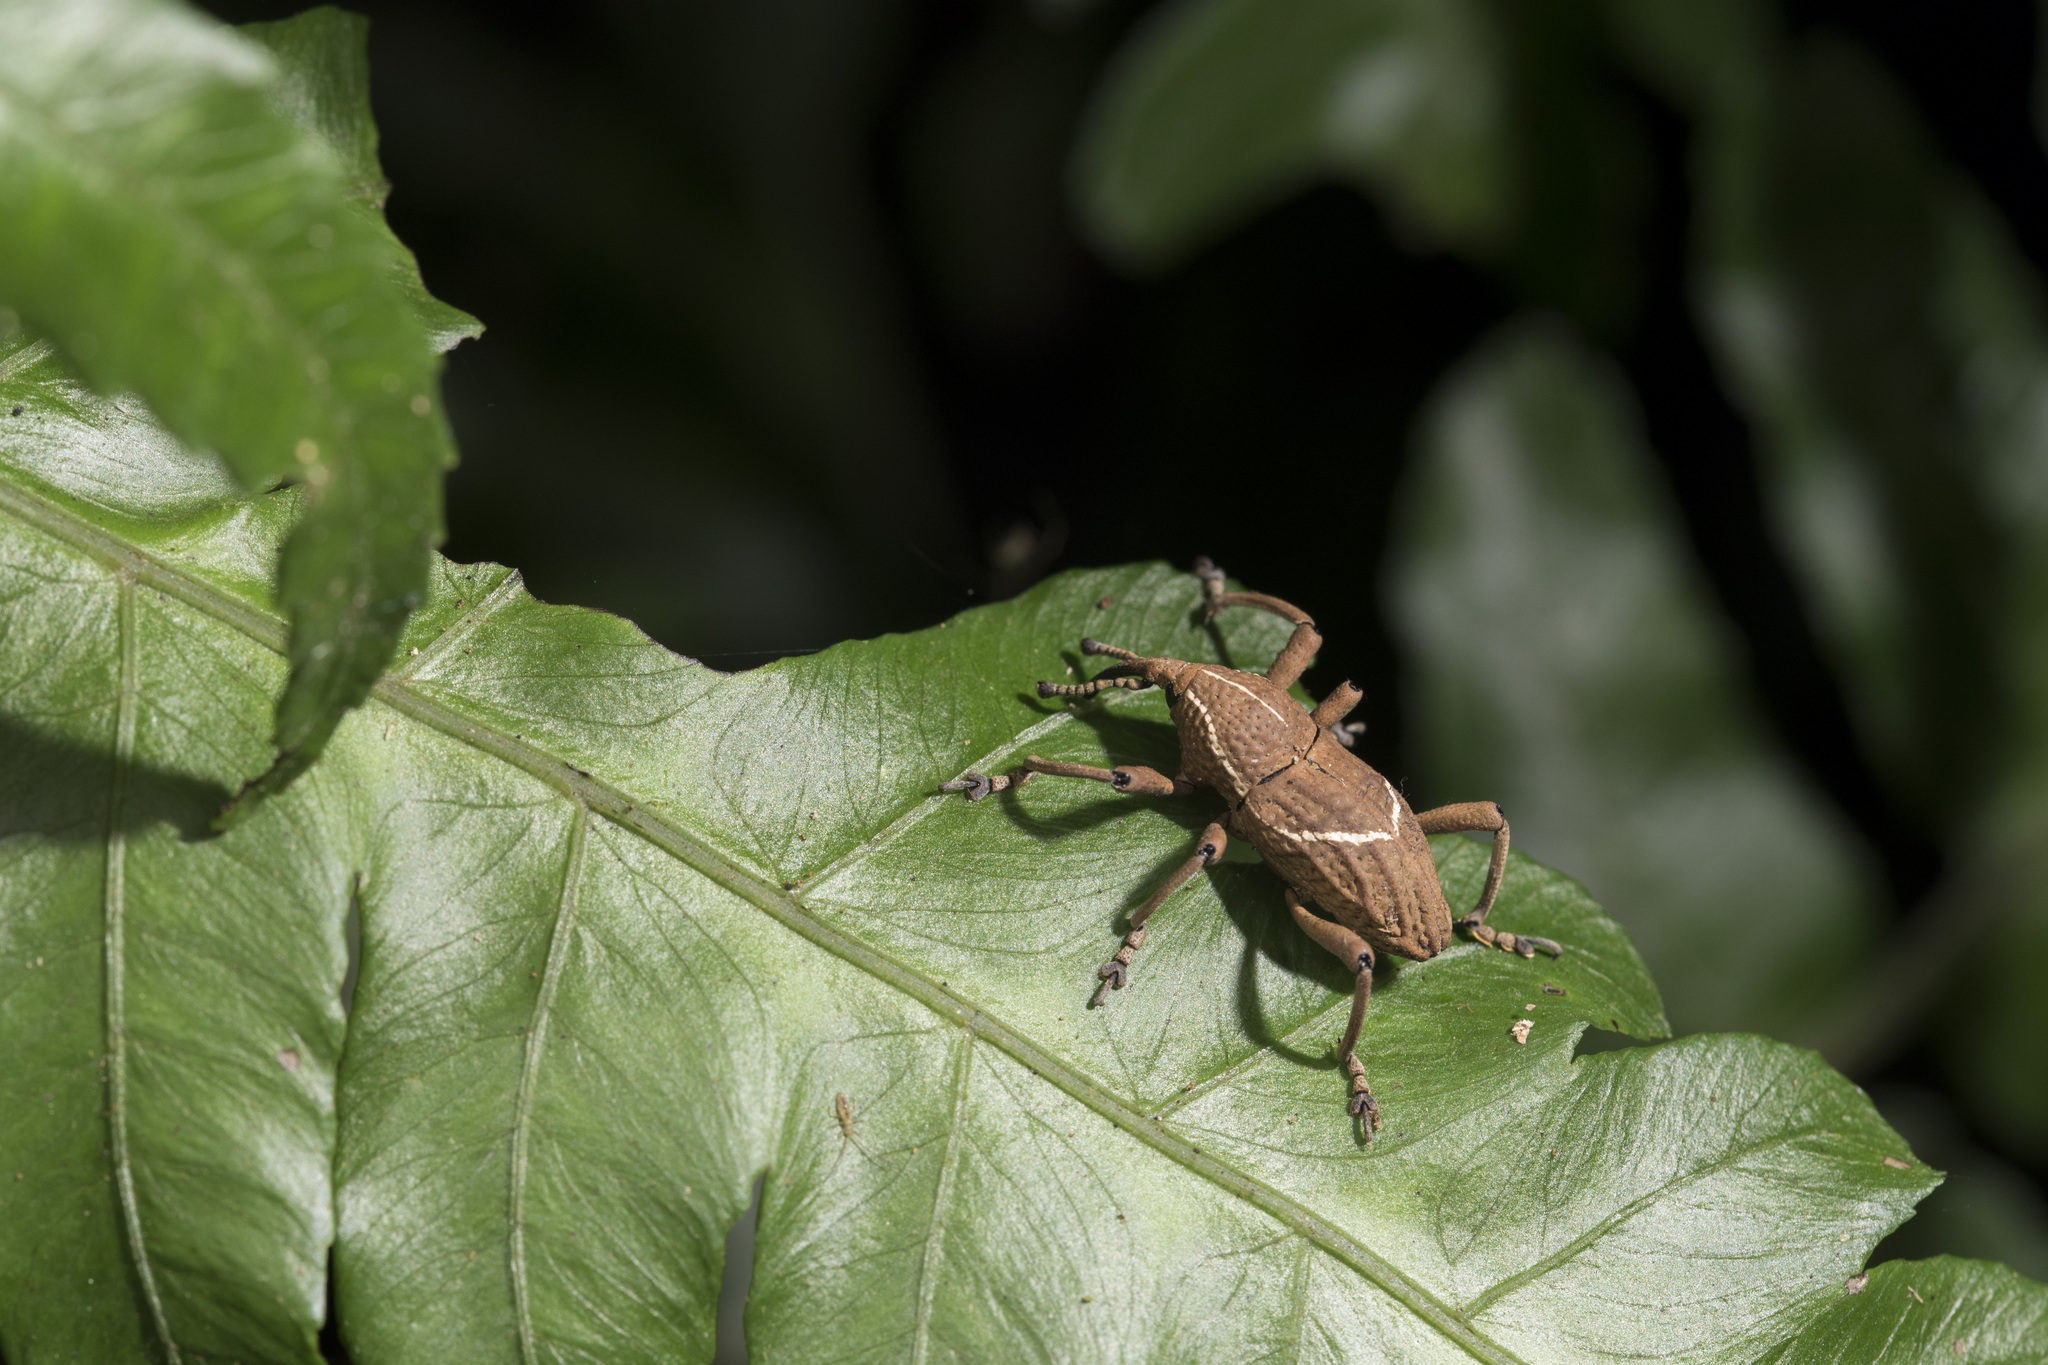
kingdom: Animalia
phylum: Arthropoda
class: Insecta
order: Coleoptera
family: Dryophthoridae
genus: Cryptoderma
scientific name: Cryptoderma formosense
